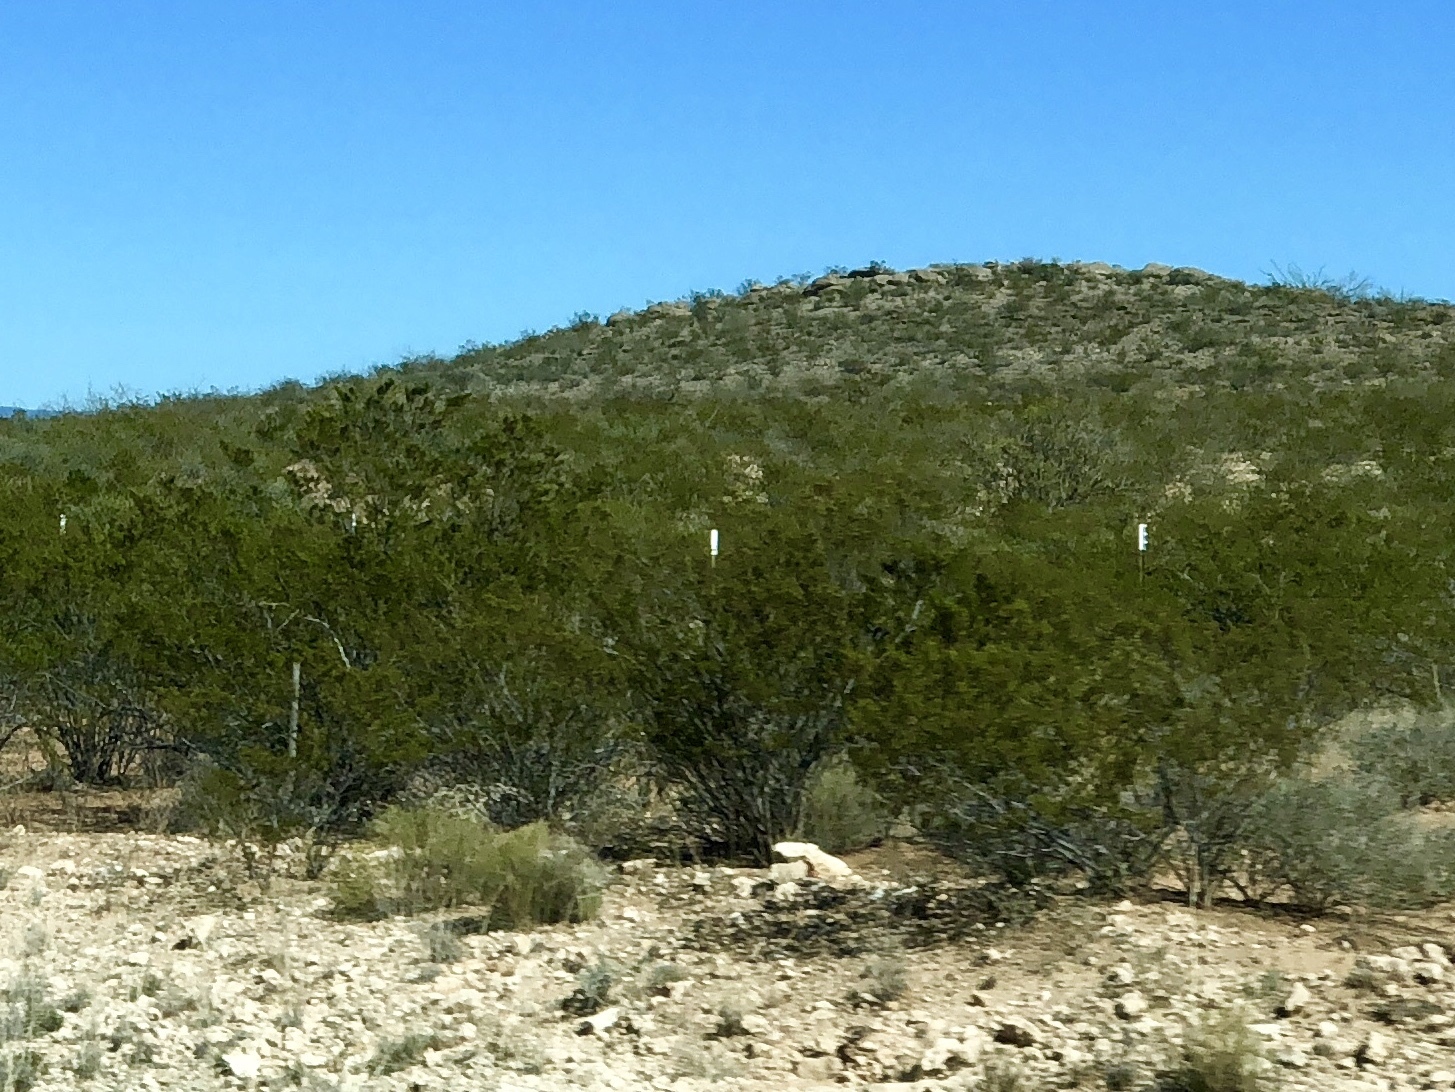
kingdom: Plantae
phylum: Tracheophyta
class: Magnoliopsida
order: Zygophyllales
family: Zygophyllaceae
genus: Larrea
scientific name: Larrea tridentata
